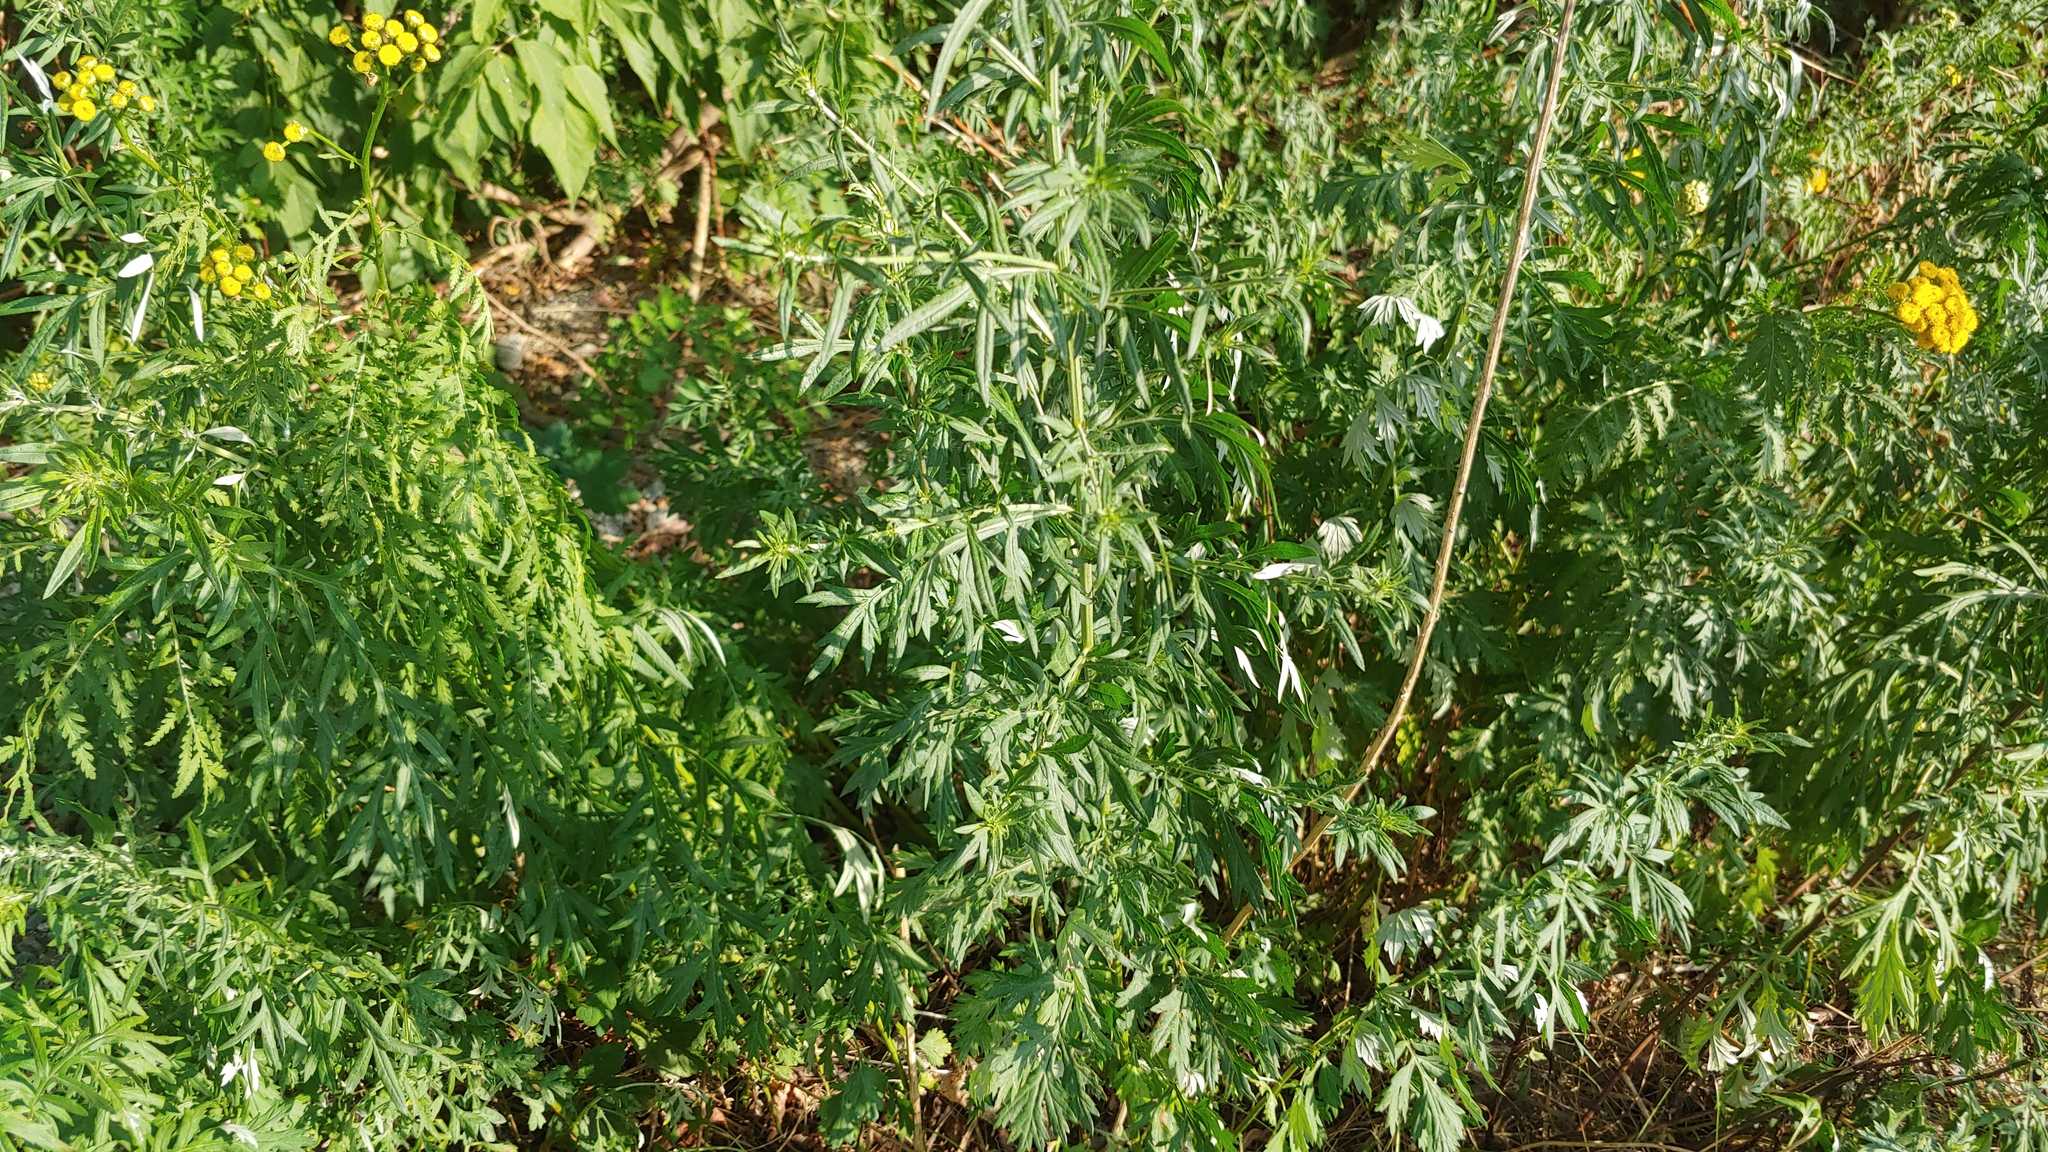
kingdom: Plantae
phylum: Tracheophyta
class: Magnoliopsida
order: Asterales
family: Asteraceae
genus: Artemisia
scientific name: Artemisia vulgaris
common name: Mugwort
